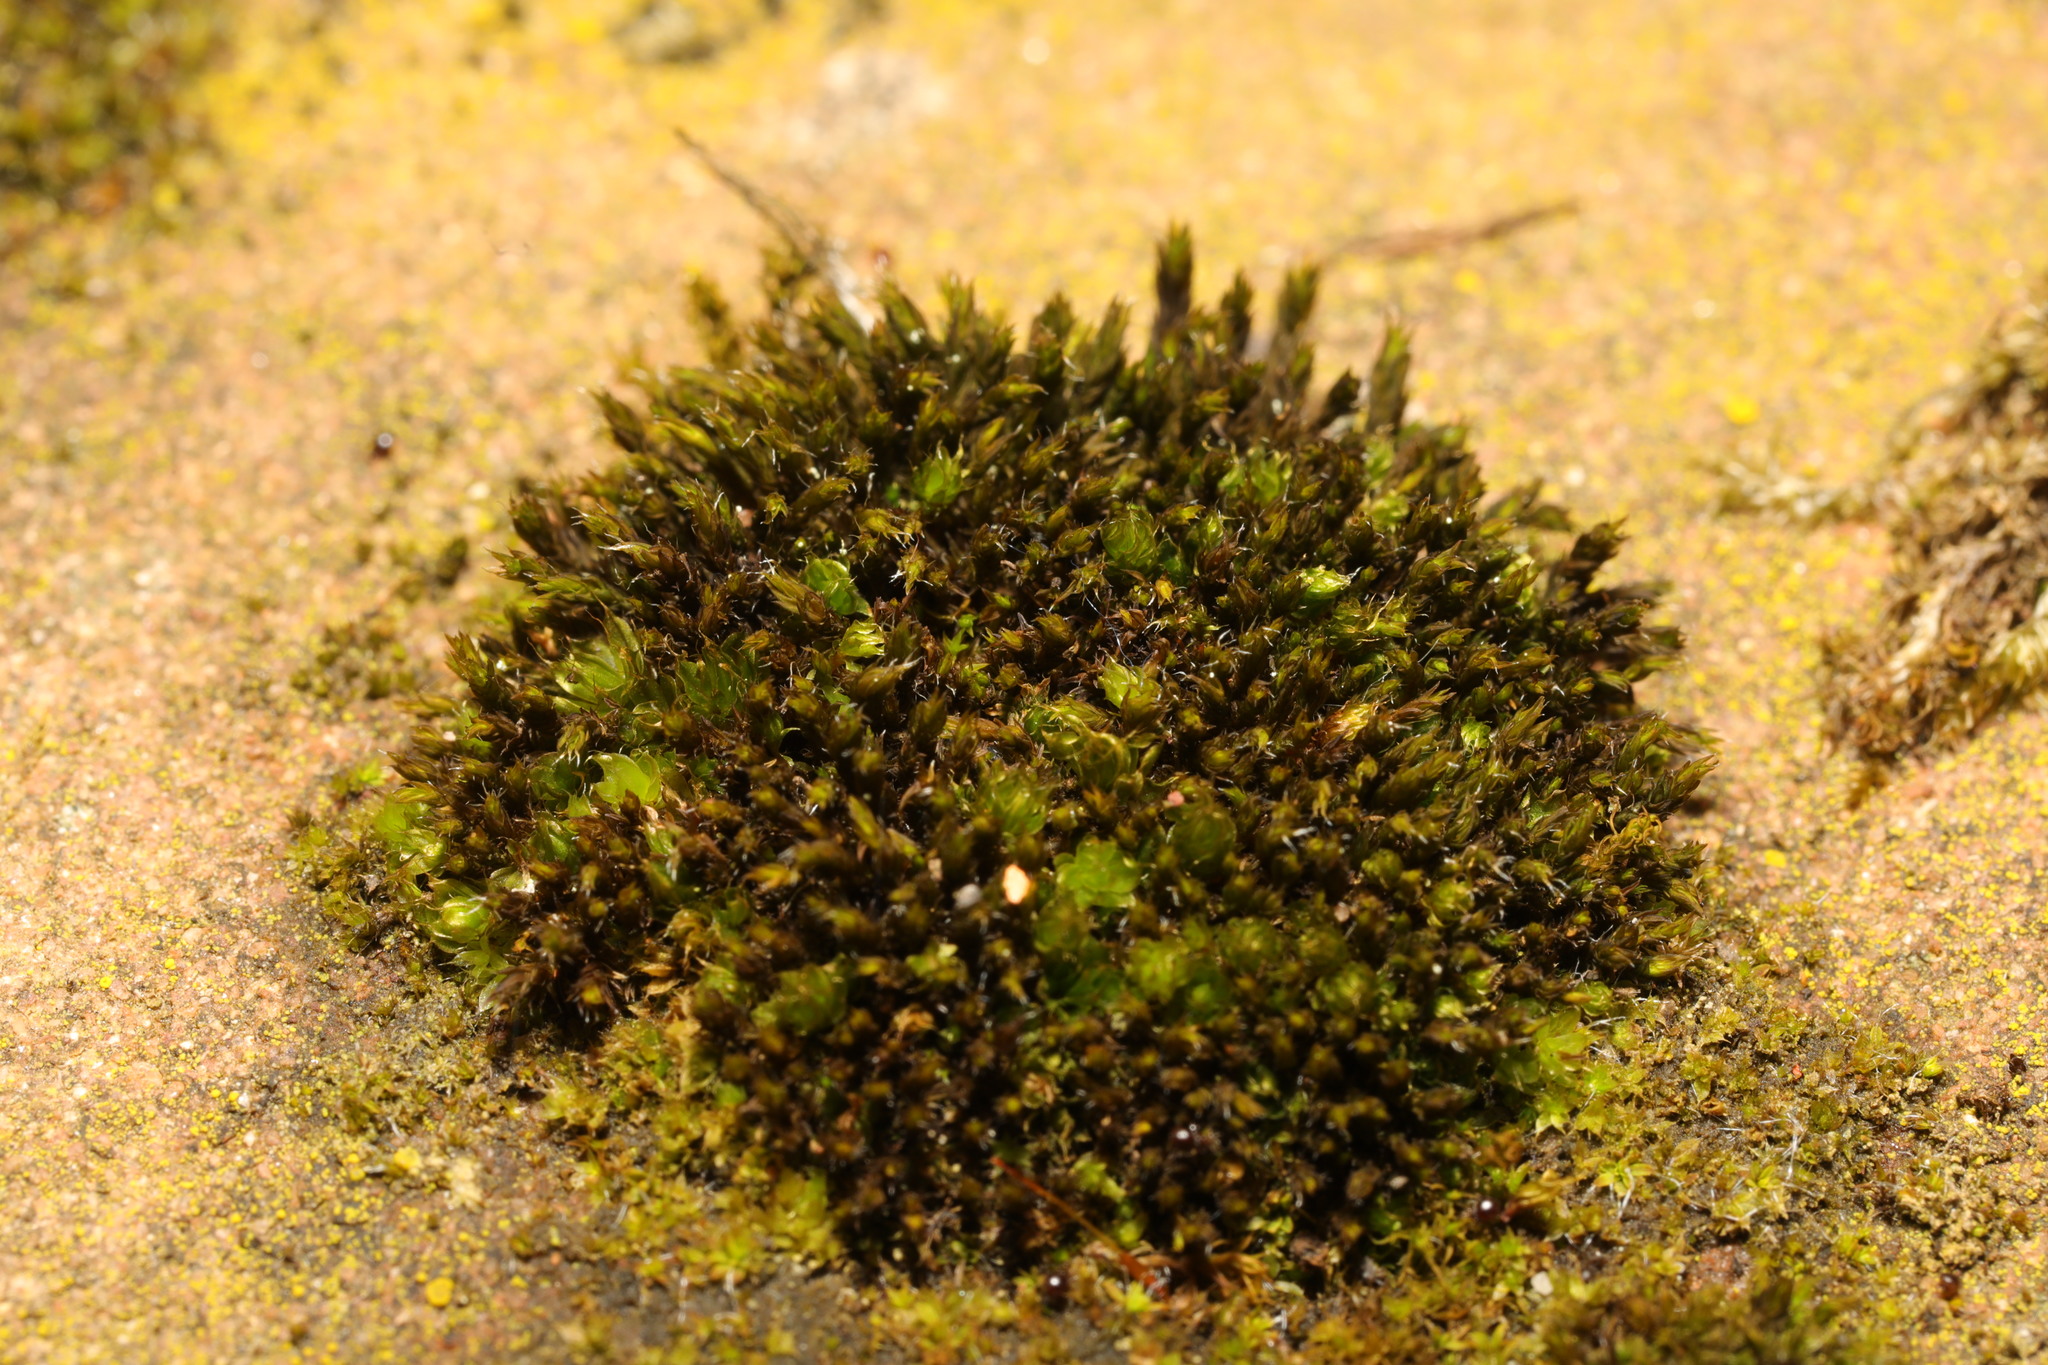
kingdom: Plantae
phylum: Bryophyta
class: Bryopsida
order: Grimmiales
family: Grimmiaceae
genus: Schistidium
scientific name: Schistidium crassipilum
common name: Thickpoint bloom moss
